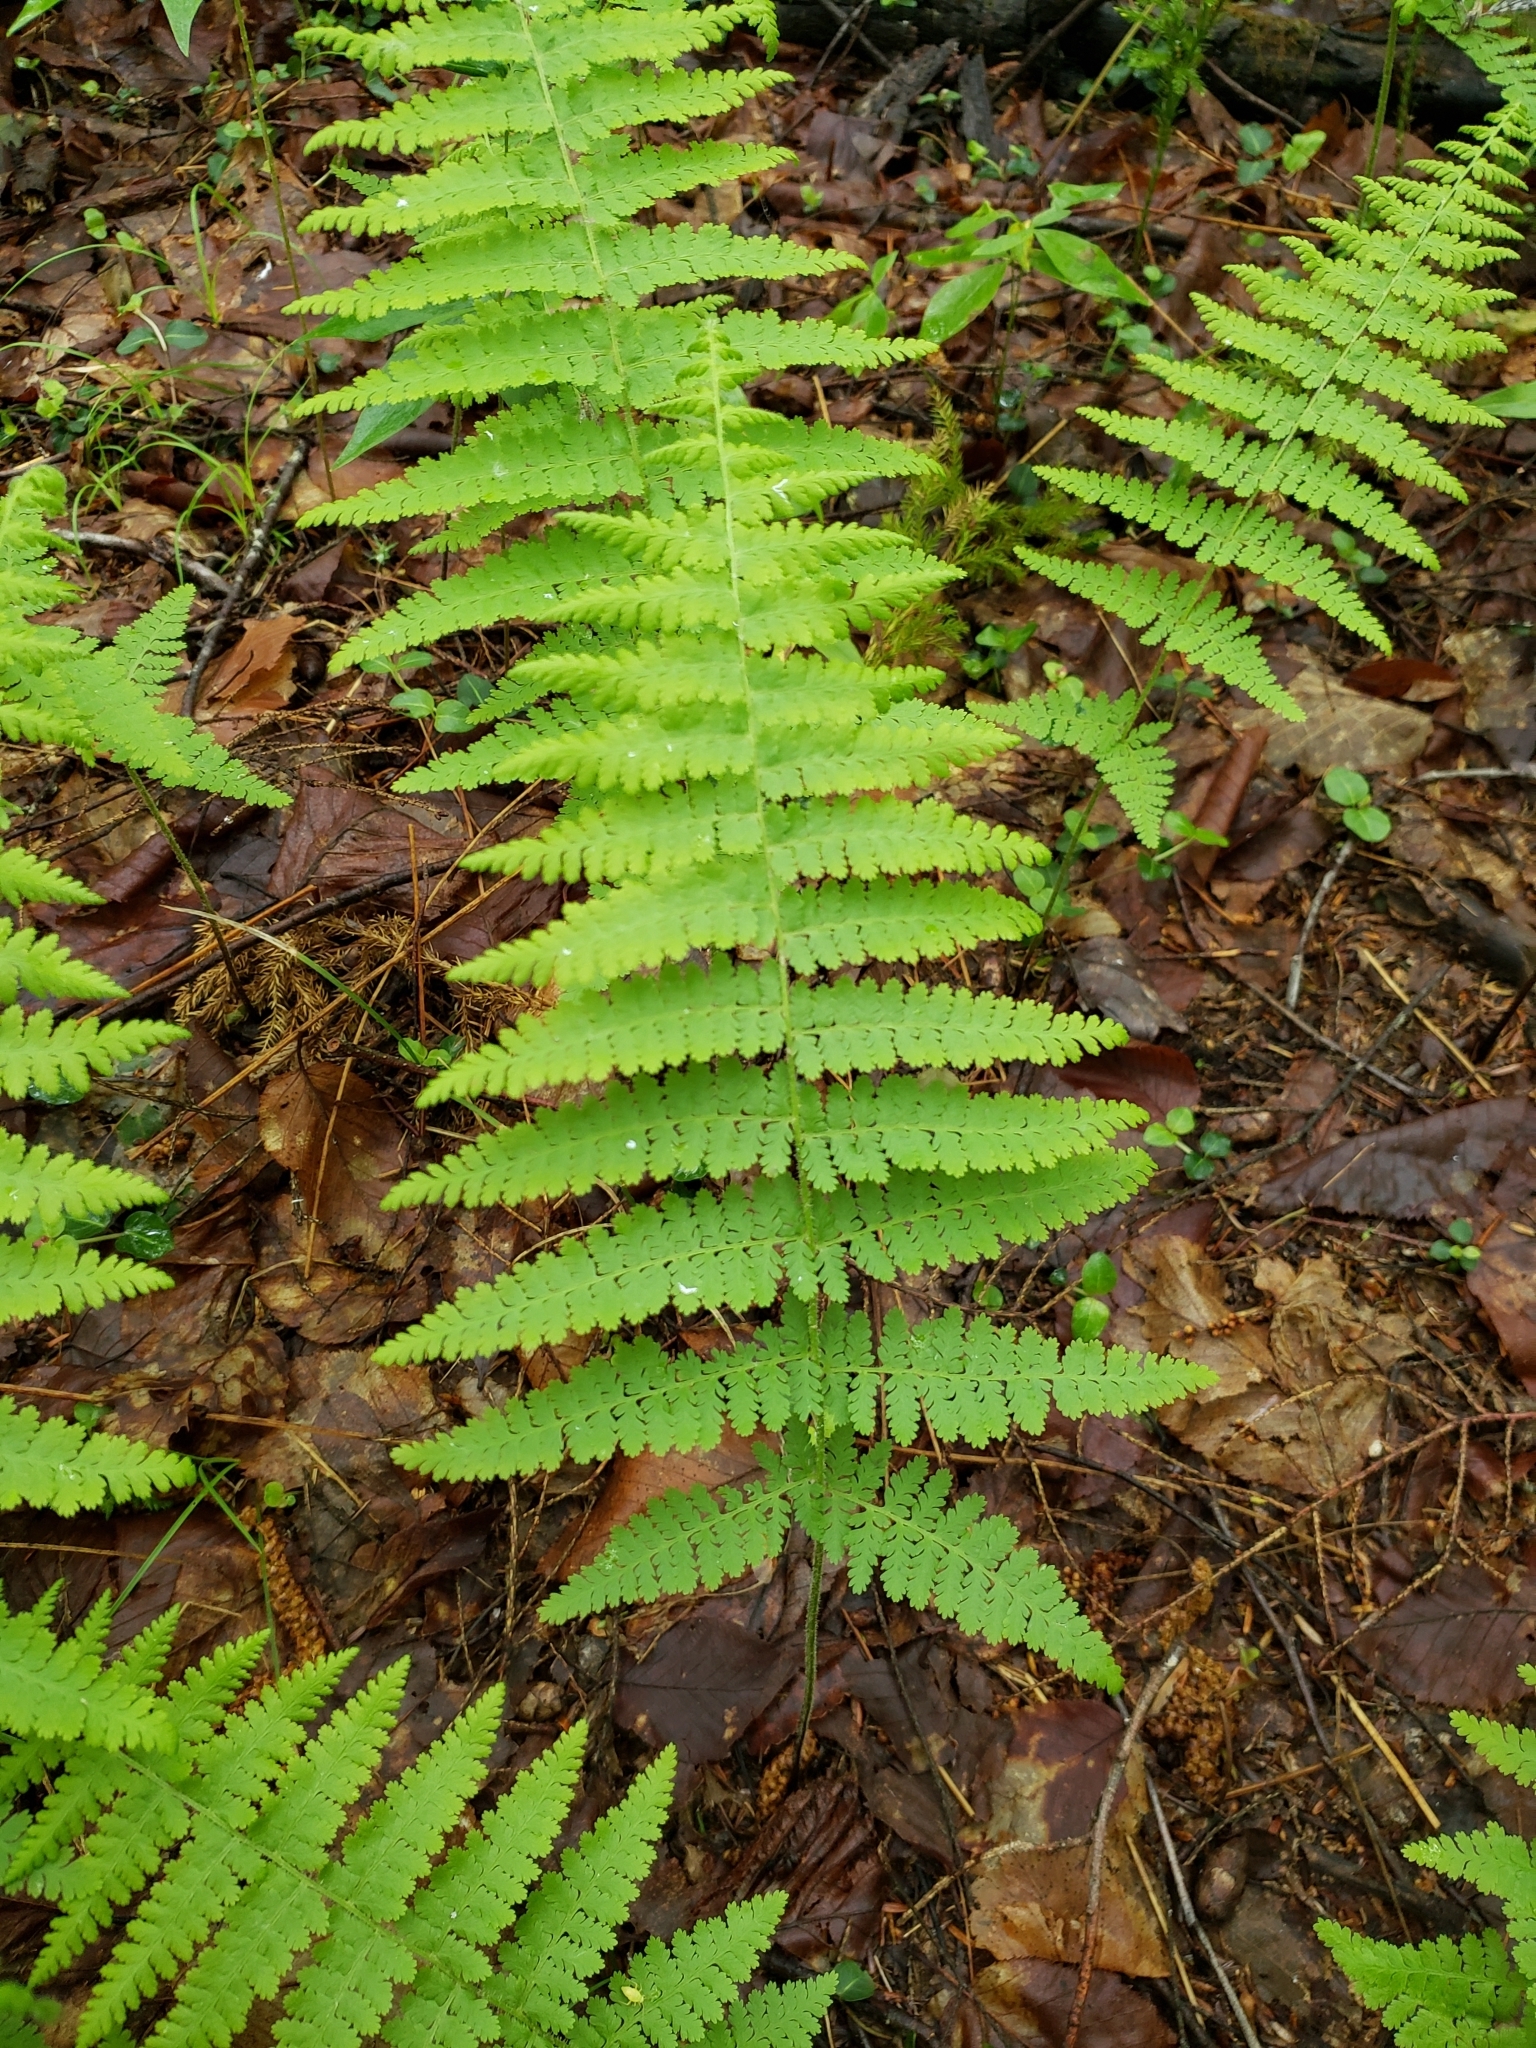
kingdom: Plantae
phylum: Tracheophyta
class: Polypodiopsida
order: Polypodiales
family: Dennstaedtiaceae
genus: Sitobolium
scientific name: Sitobolium punctilobum
